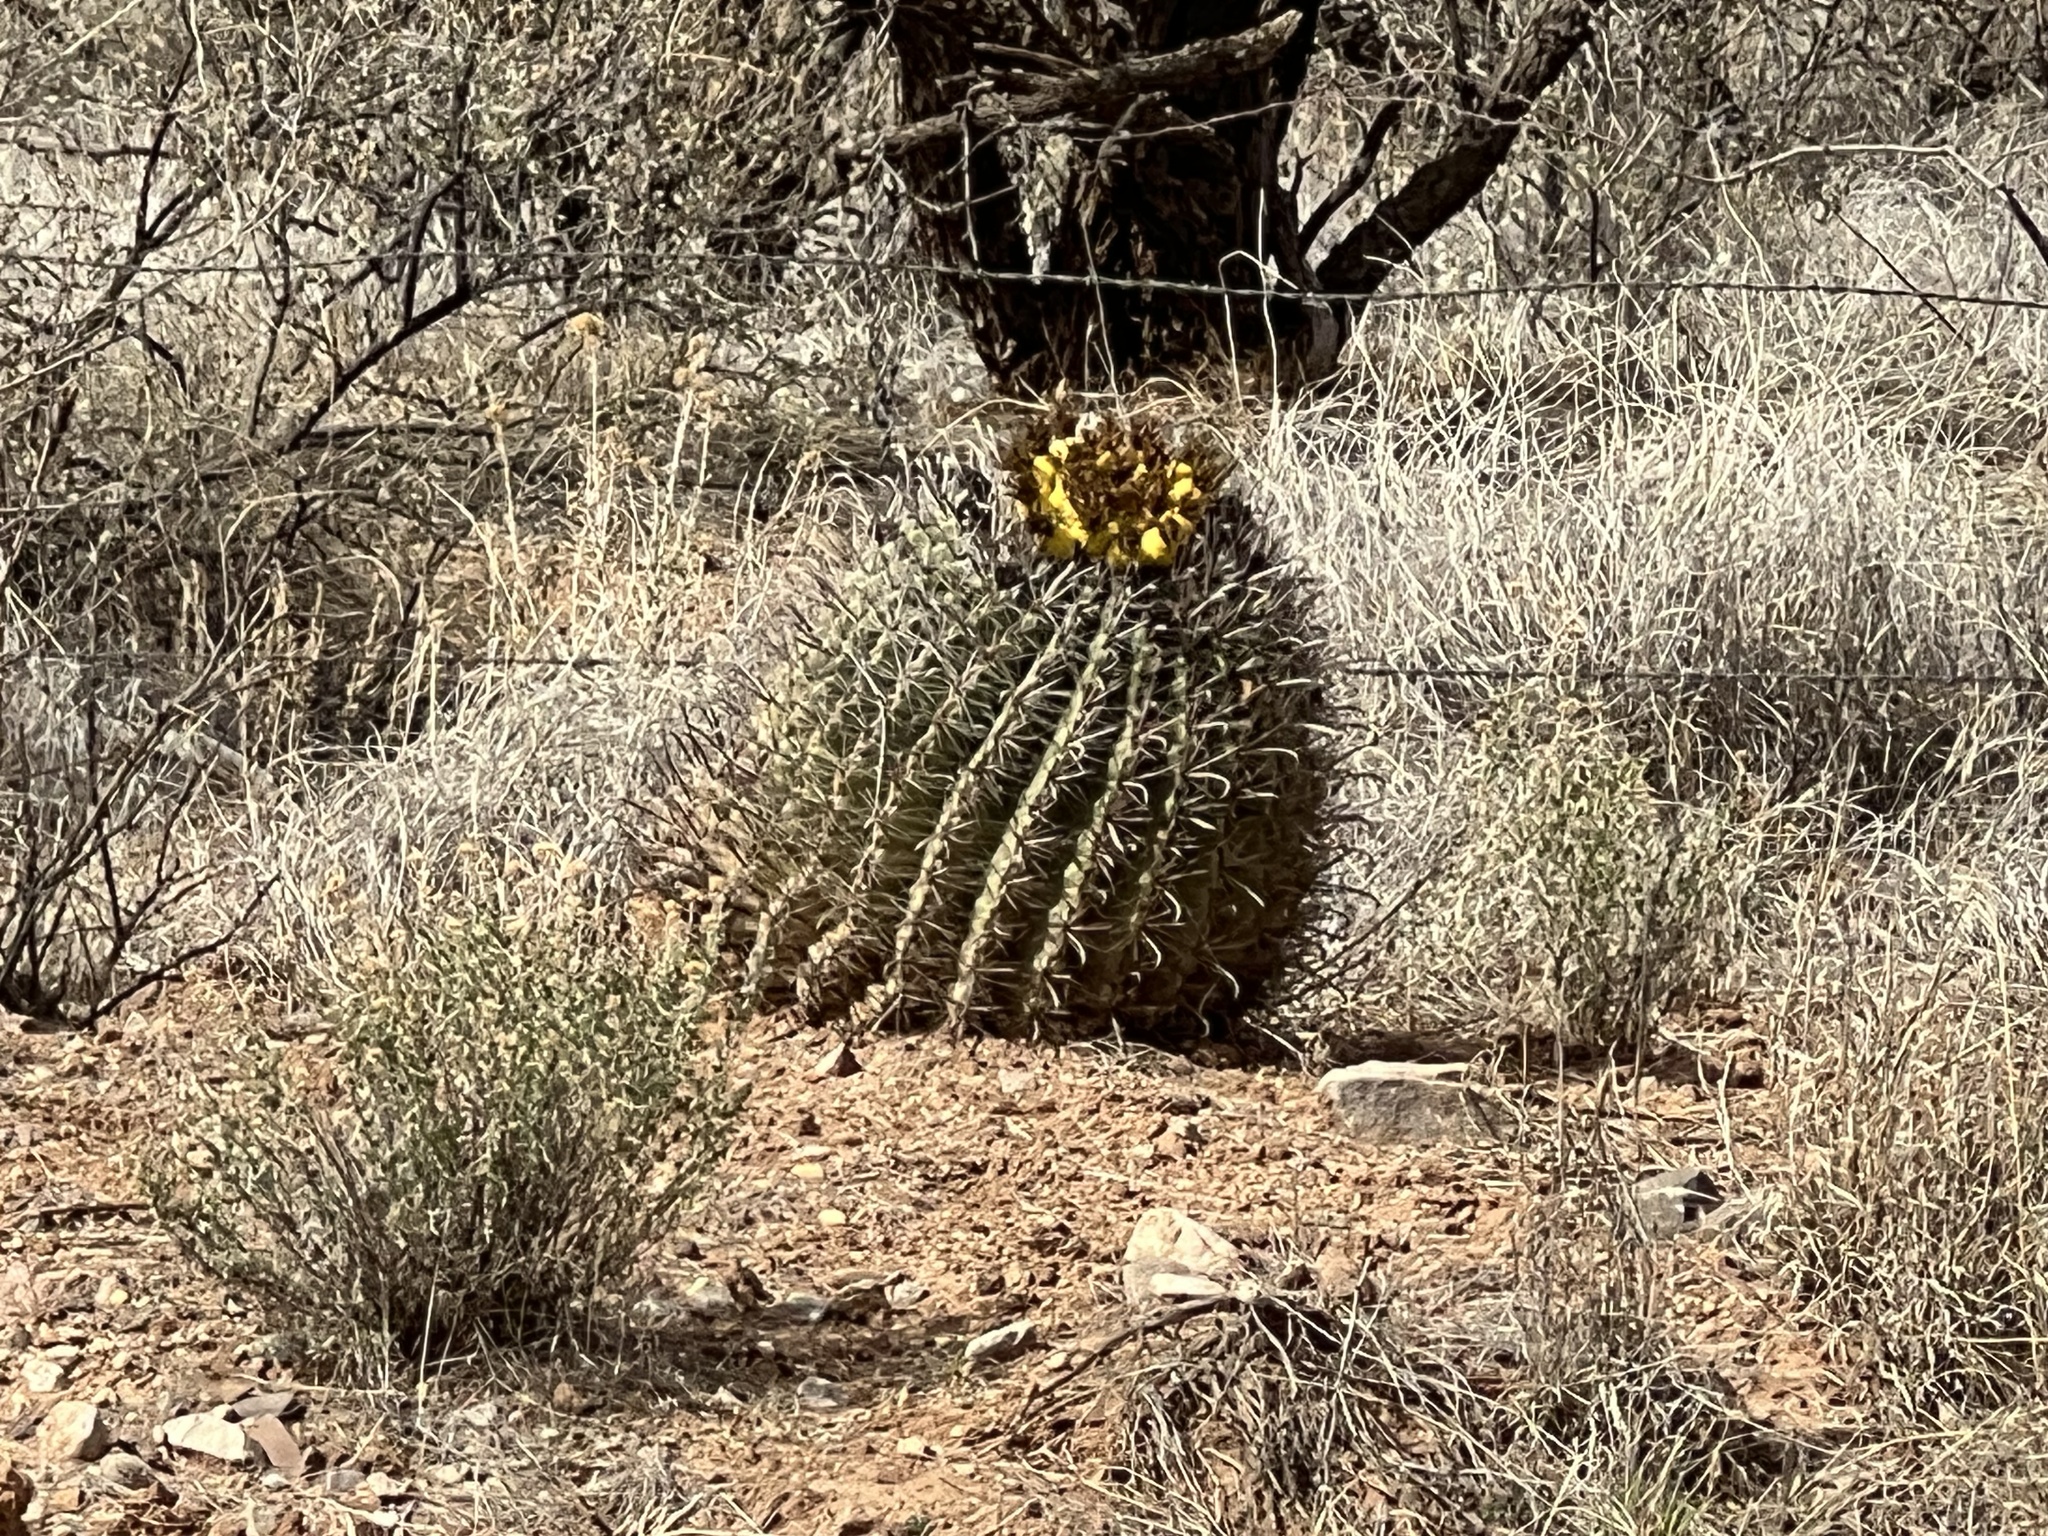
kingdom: Plantae
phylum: Tracheophyta
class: Magnoliopsida
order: Caryophyllales
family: Cactaceae
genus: Ferocactus
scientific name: Ferocactus wislizeni
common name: Candy barrel cactus
